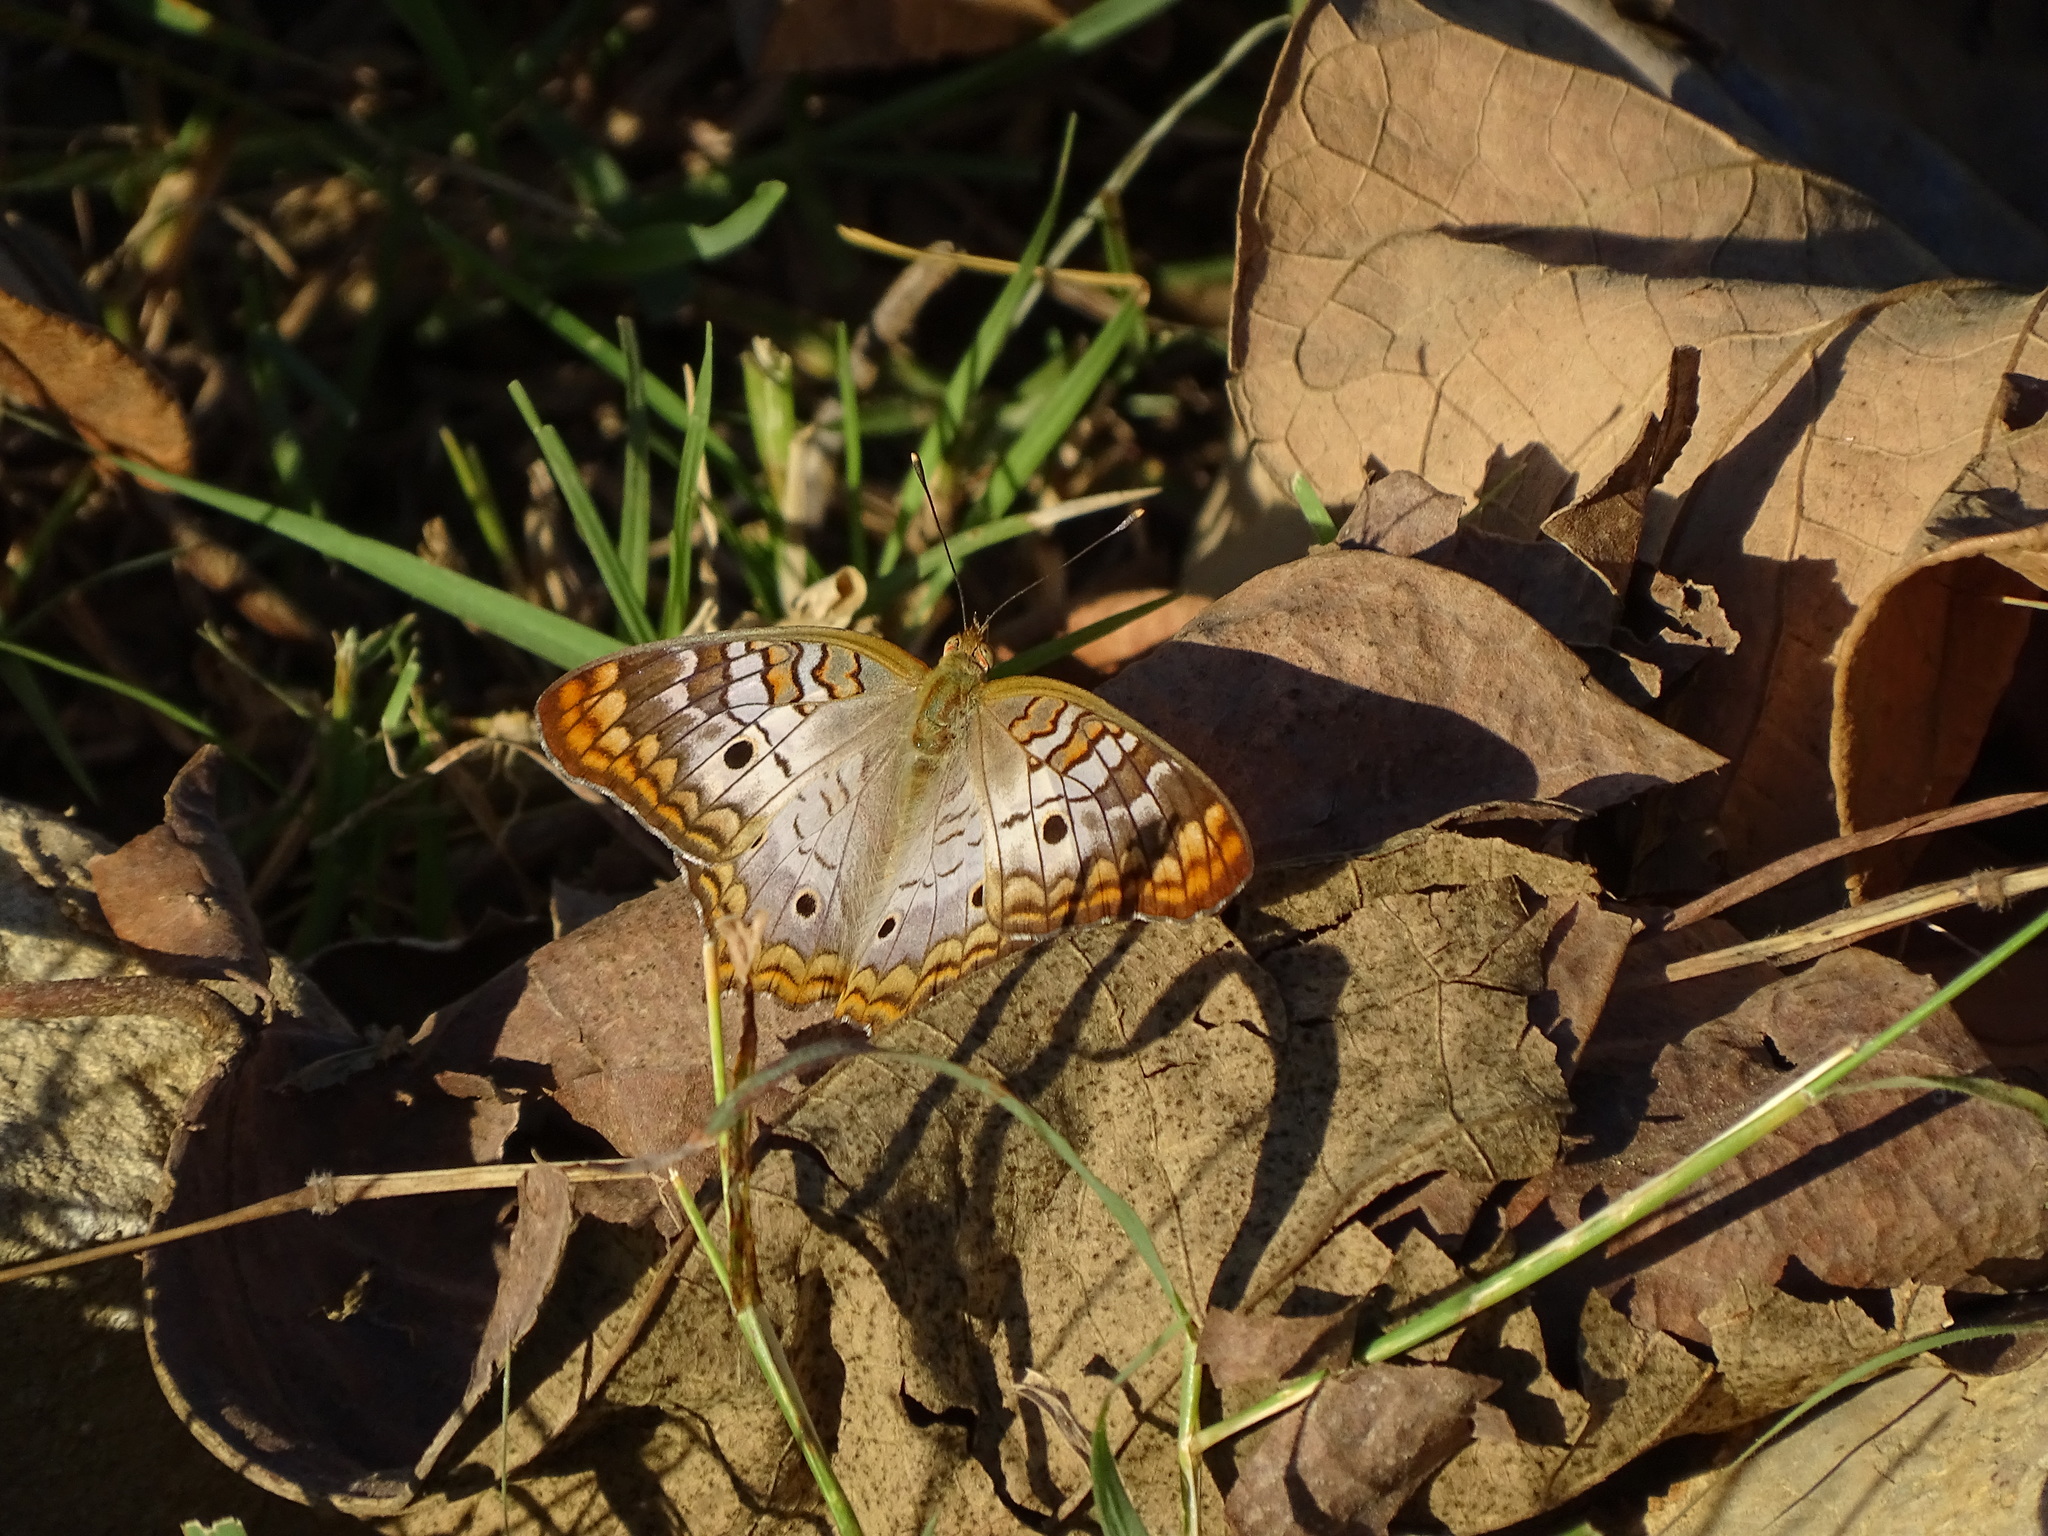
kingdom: Animalia
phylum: Arthropoda
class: Insecta
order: Lepidoptera
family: Nymphalidae
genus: Anartia
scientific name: Anartia jatrophae
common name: White peacock
